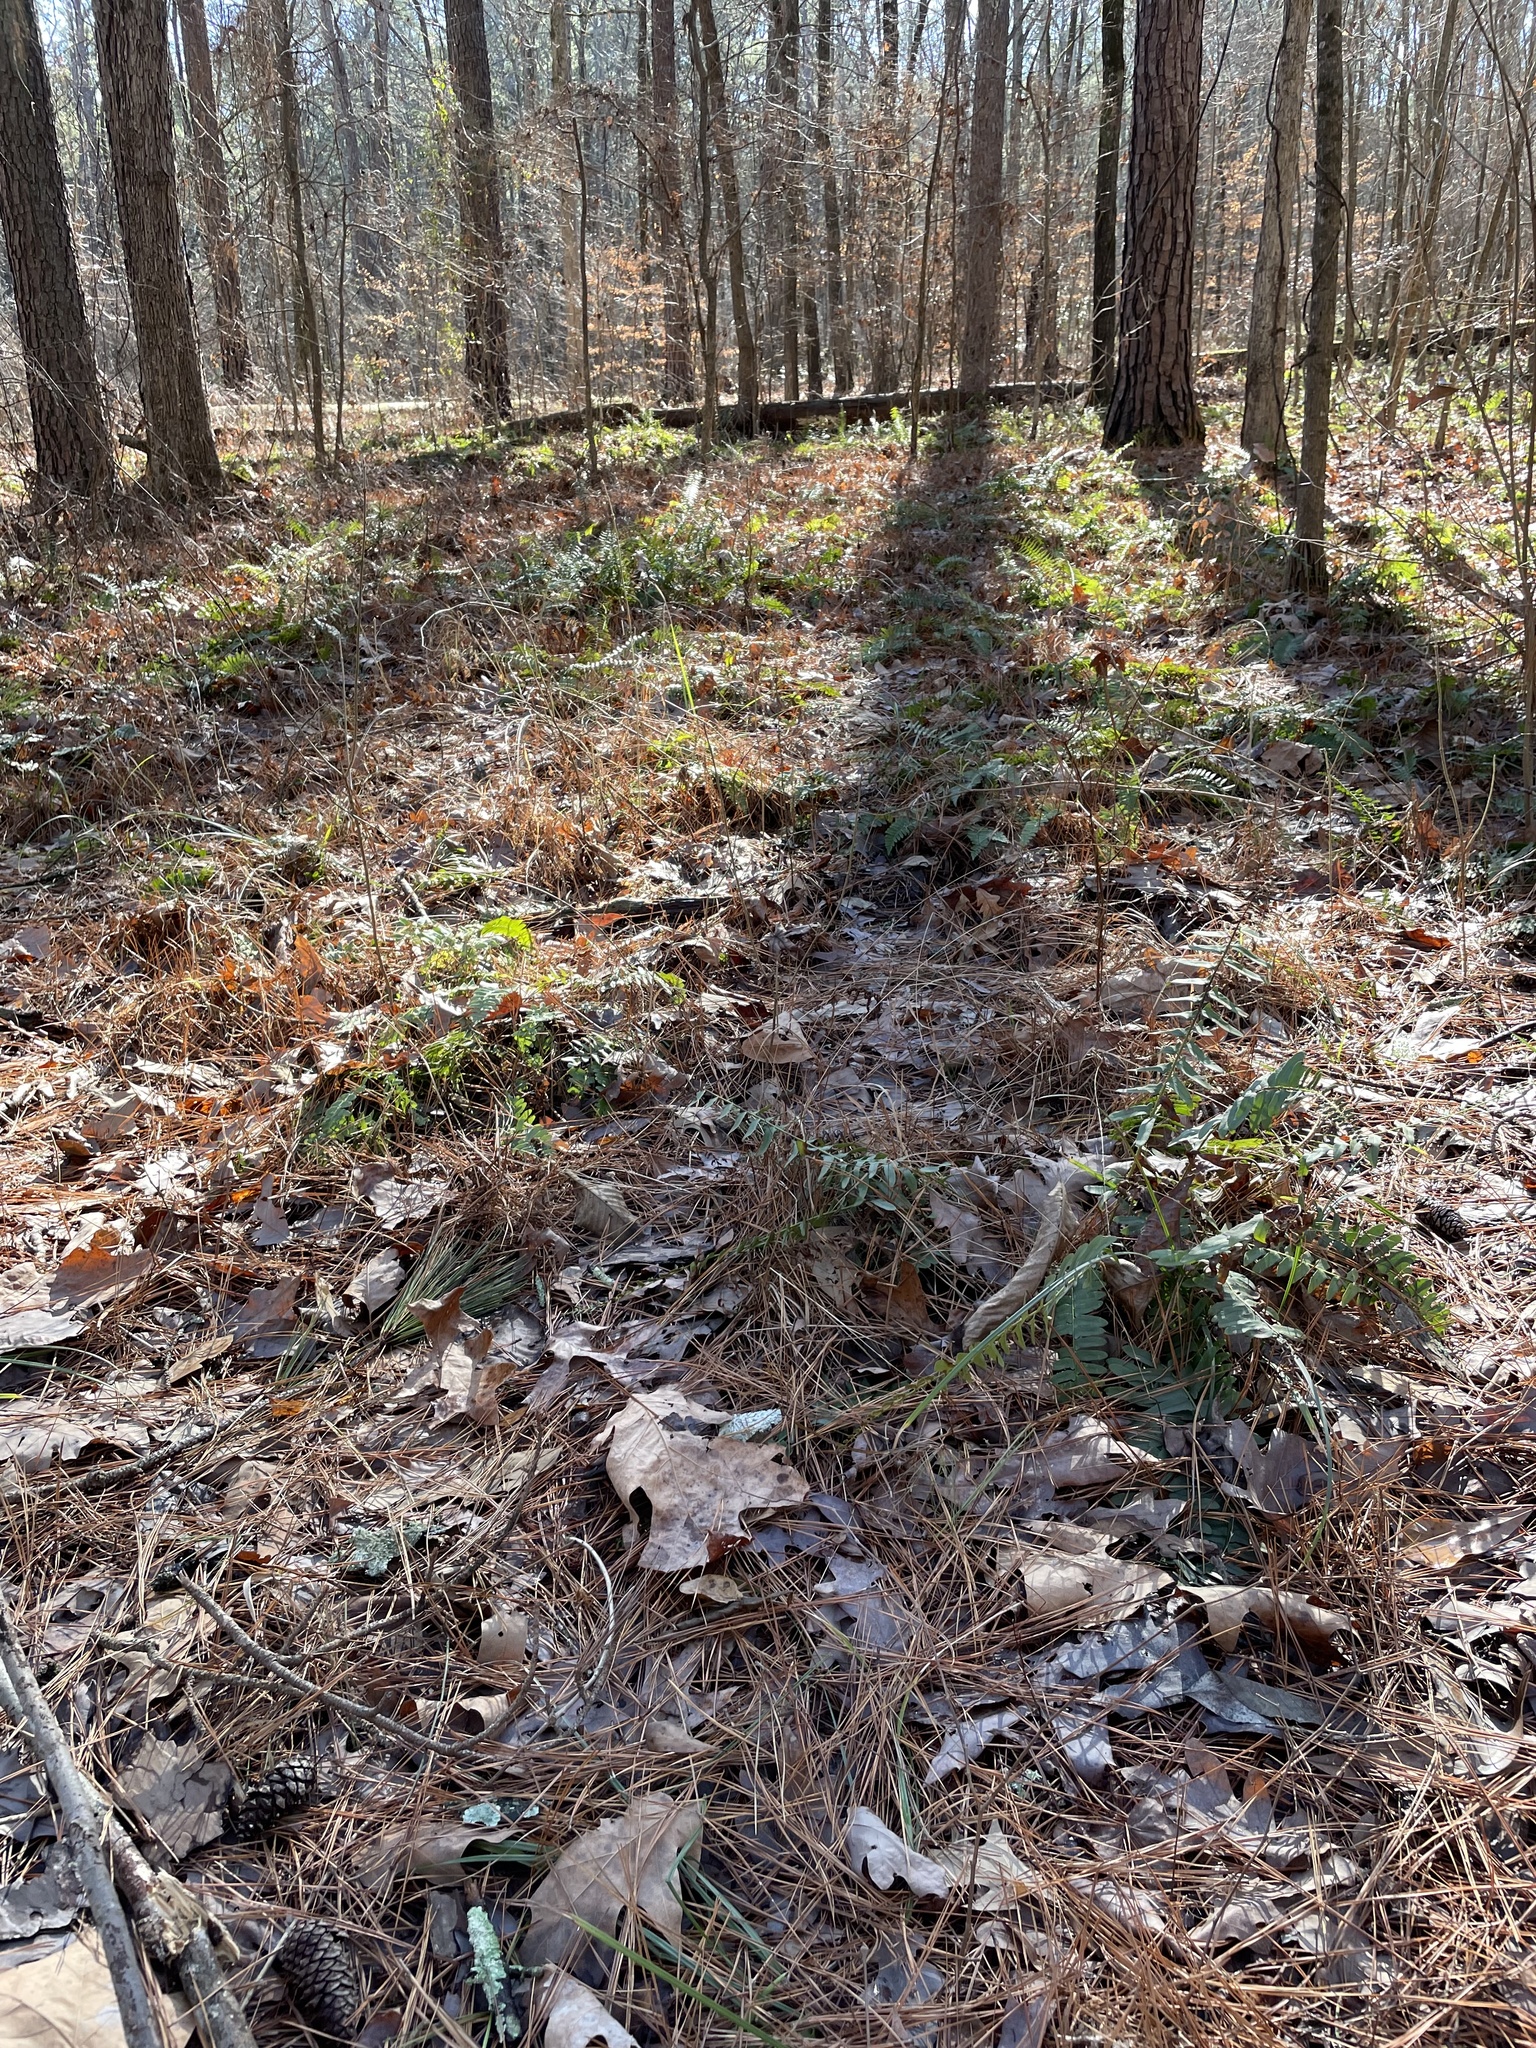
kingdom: Plantae
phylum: Tracheophyta
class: Polypodiopsida
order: Polypodiales
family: Dryopteridaceae
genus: Polystichum
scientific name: Polystichum acrostichoides
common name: Christmas fern
